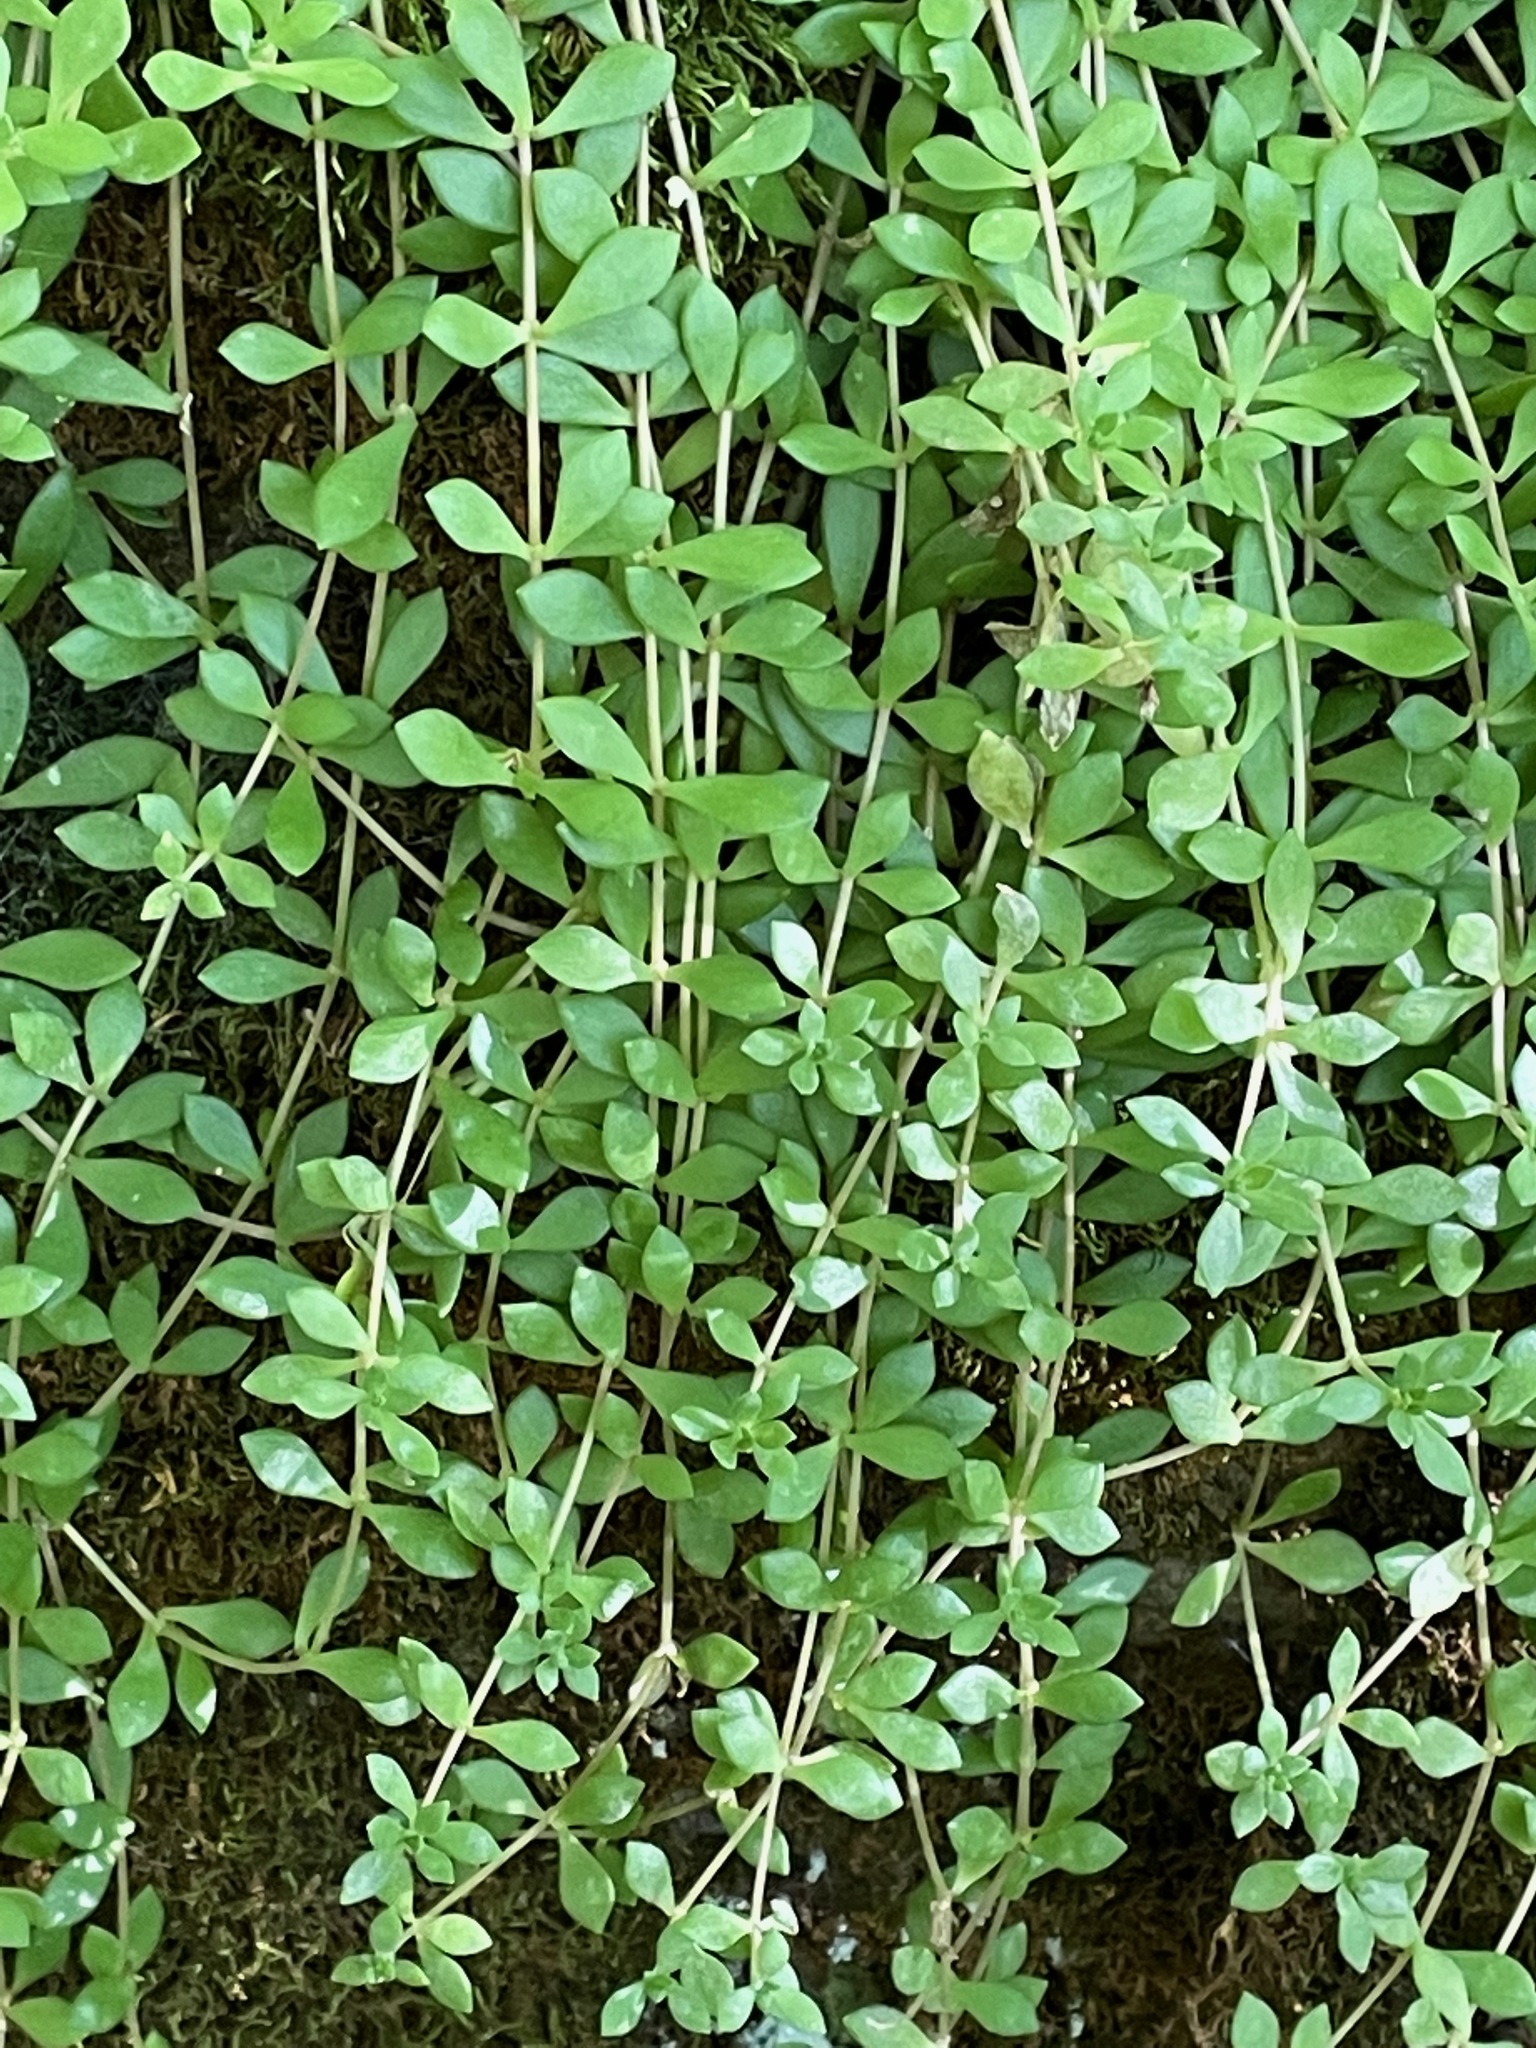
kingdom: Plantae
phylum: Tracheophyta
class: Magnoliopsida
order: Saxifragales
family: Crassulaceae
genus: Sedum
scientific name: Sedum sarmentosum
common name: Stringy stonecrop
